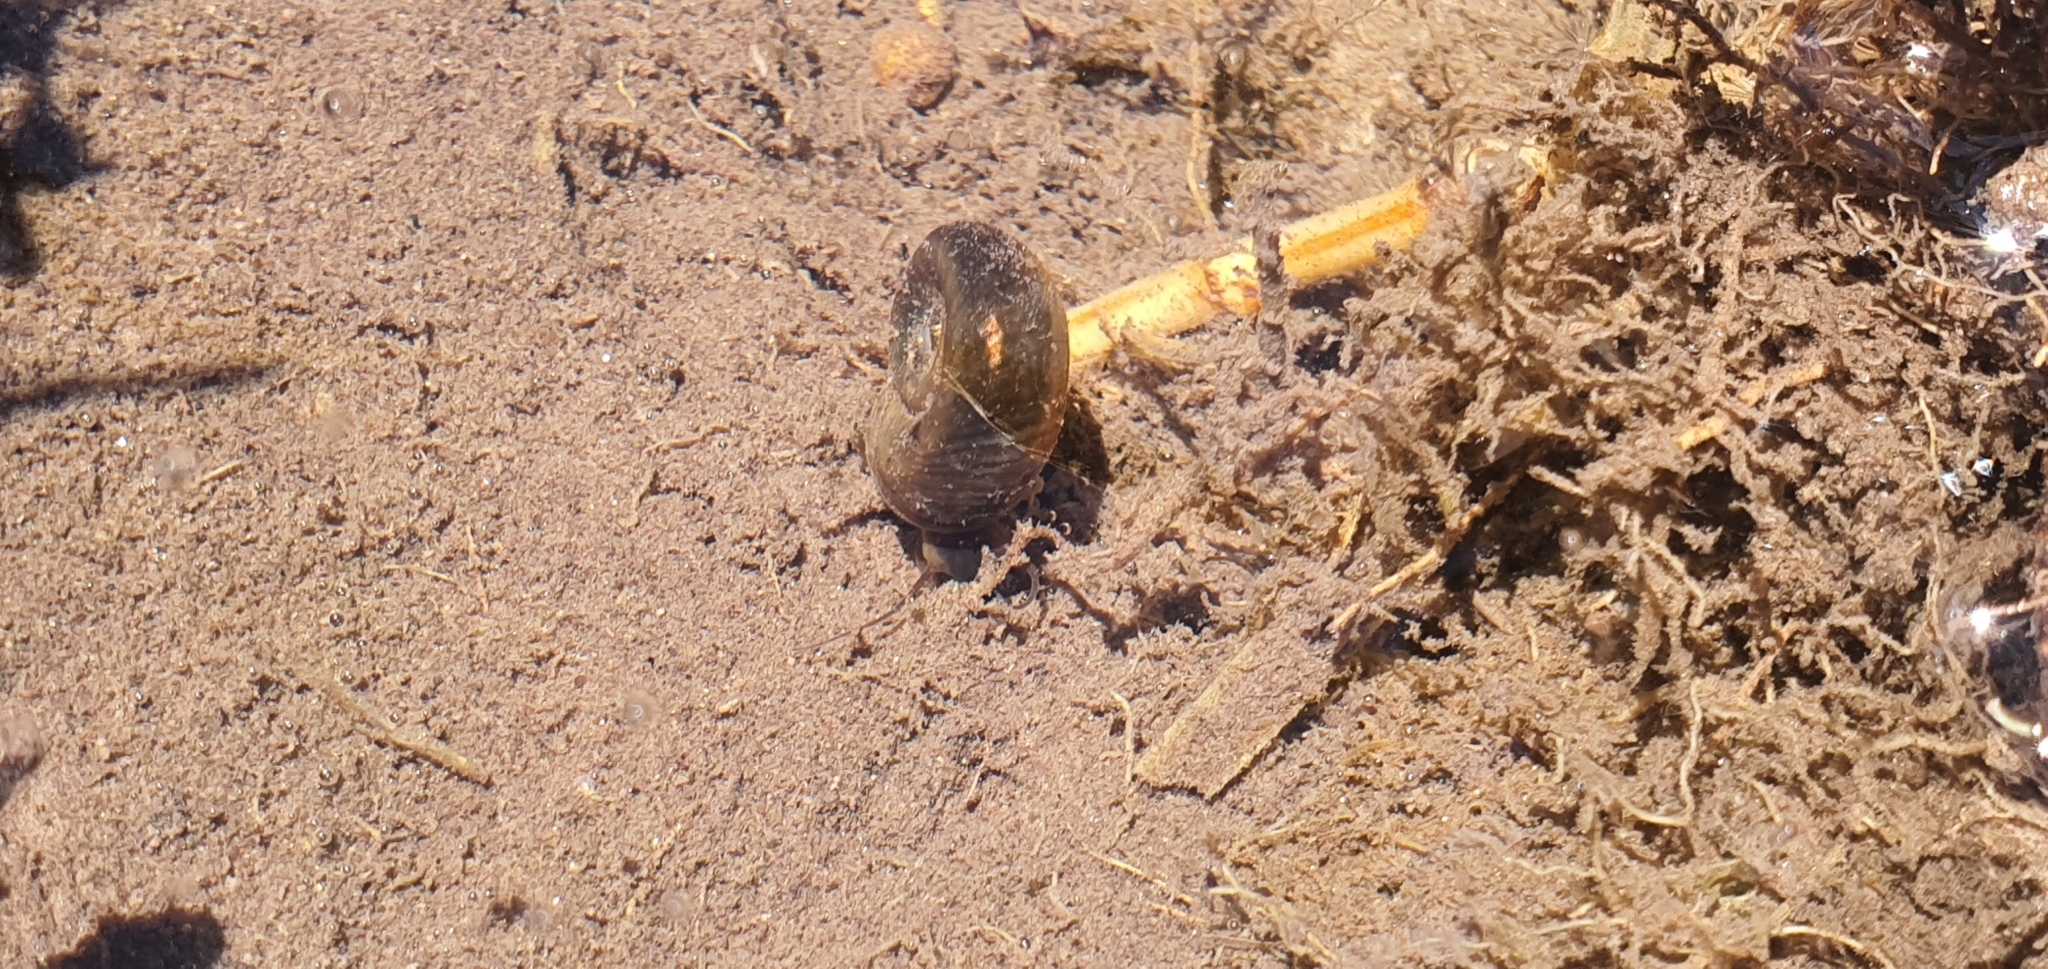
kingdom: Animalia
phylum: Mollusca
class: Gastropoda
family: Planorbidae
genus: Planorbarius
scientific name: Planorbarius corneus
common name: Great ramshorn
